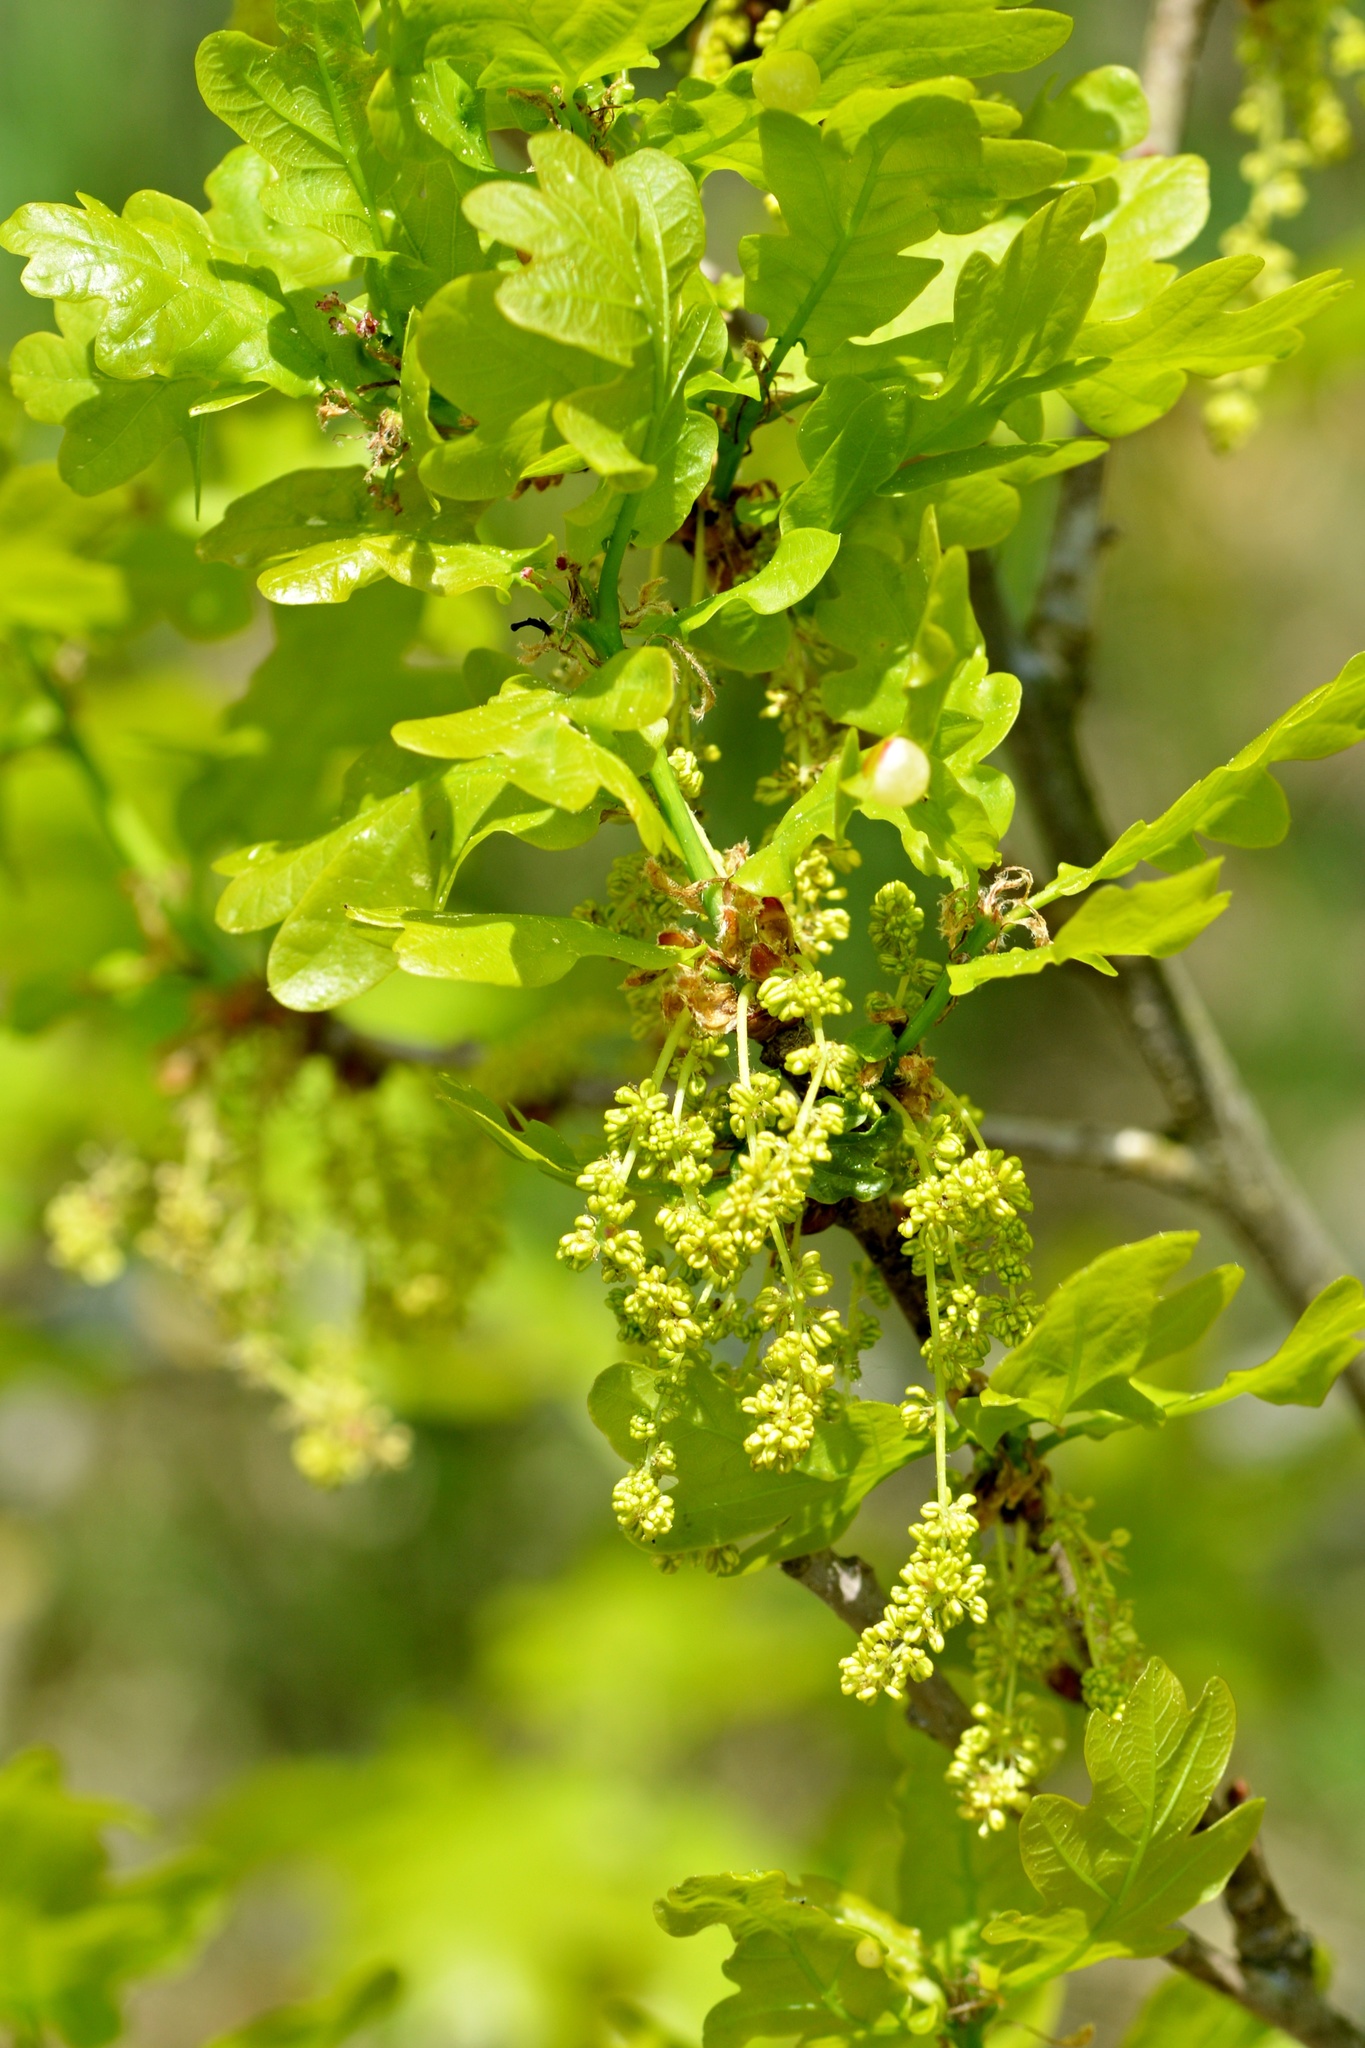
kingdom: Plantae
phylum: Tracheophyta
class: Magnoliopsida
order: Fagales
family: Fagaceae
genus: Quercus
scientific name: Quercus robur
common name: Pedunculate oak
